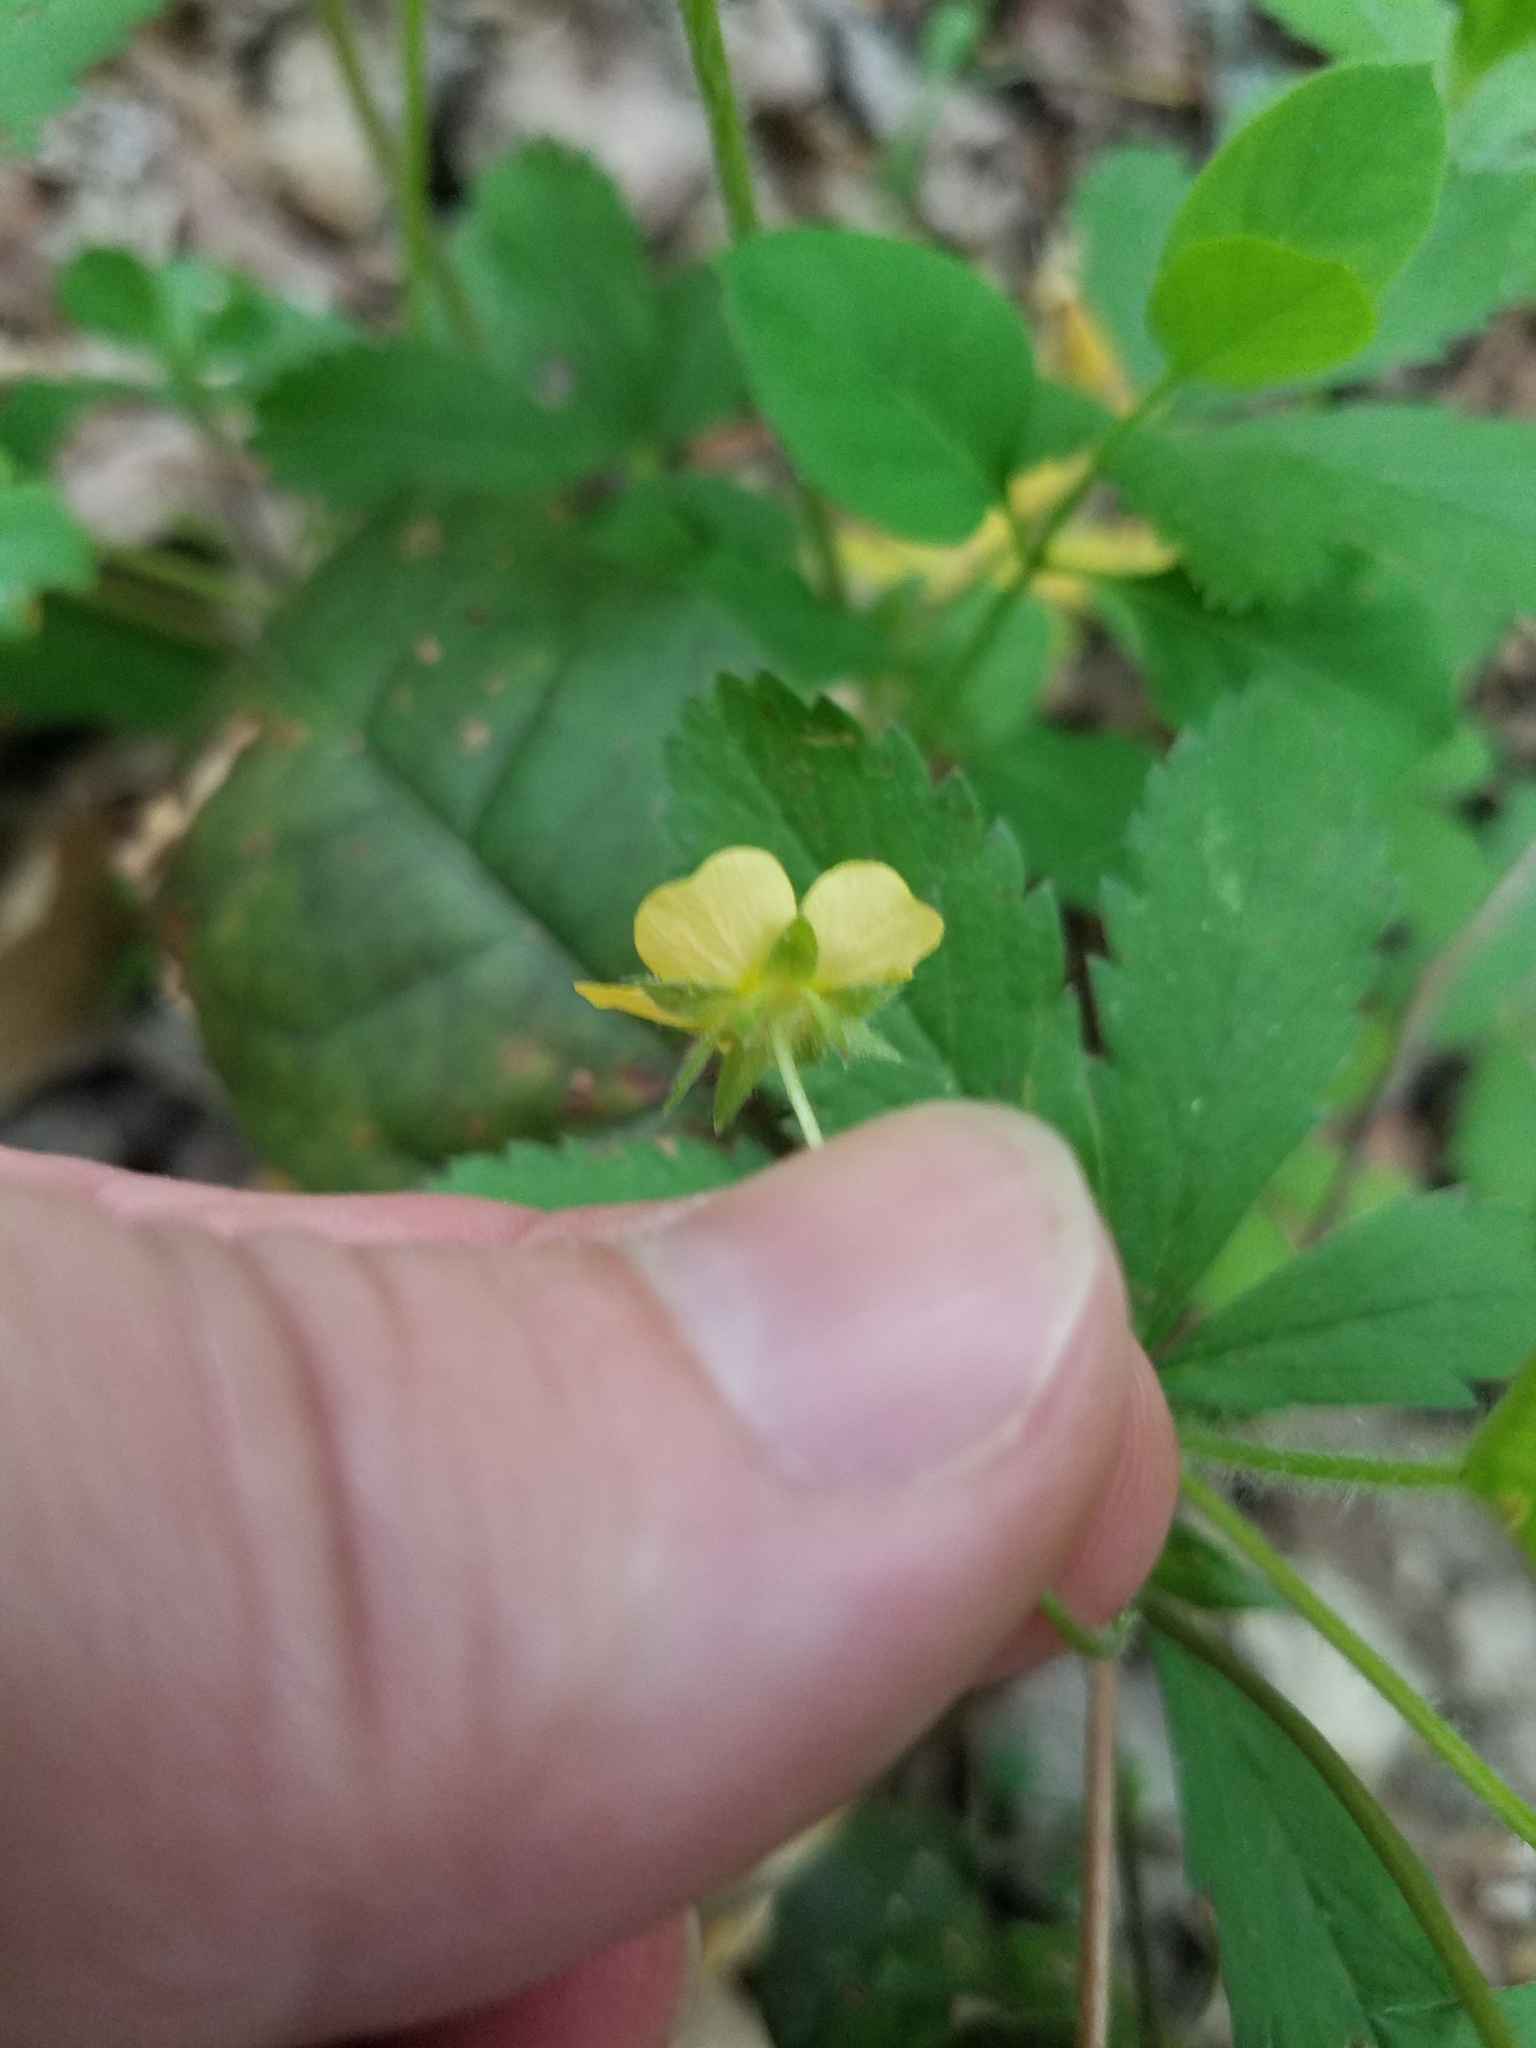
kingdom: Plantae
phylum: Tracheophyta
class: Magnoliopsida
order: Rosales
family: Rosaceae
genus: Potentilla
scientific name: Potentilla simplex
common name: Old field cinquefoil
